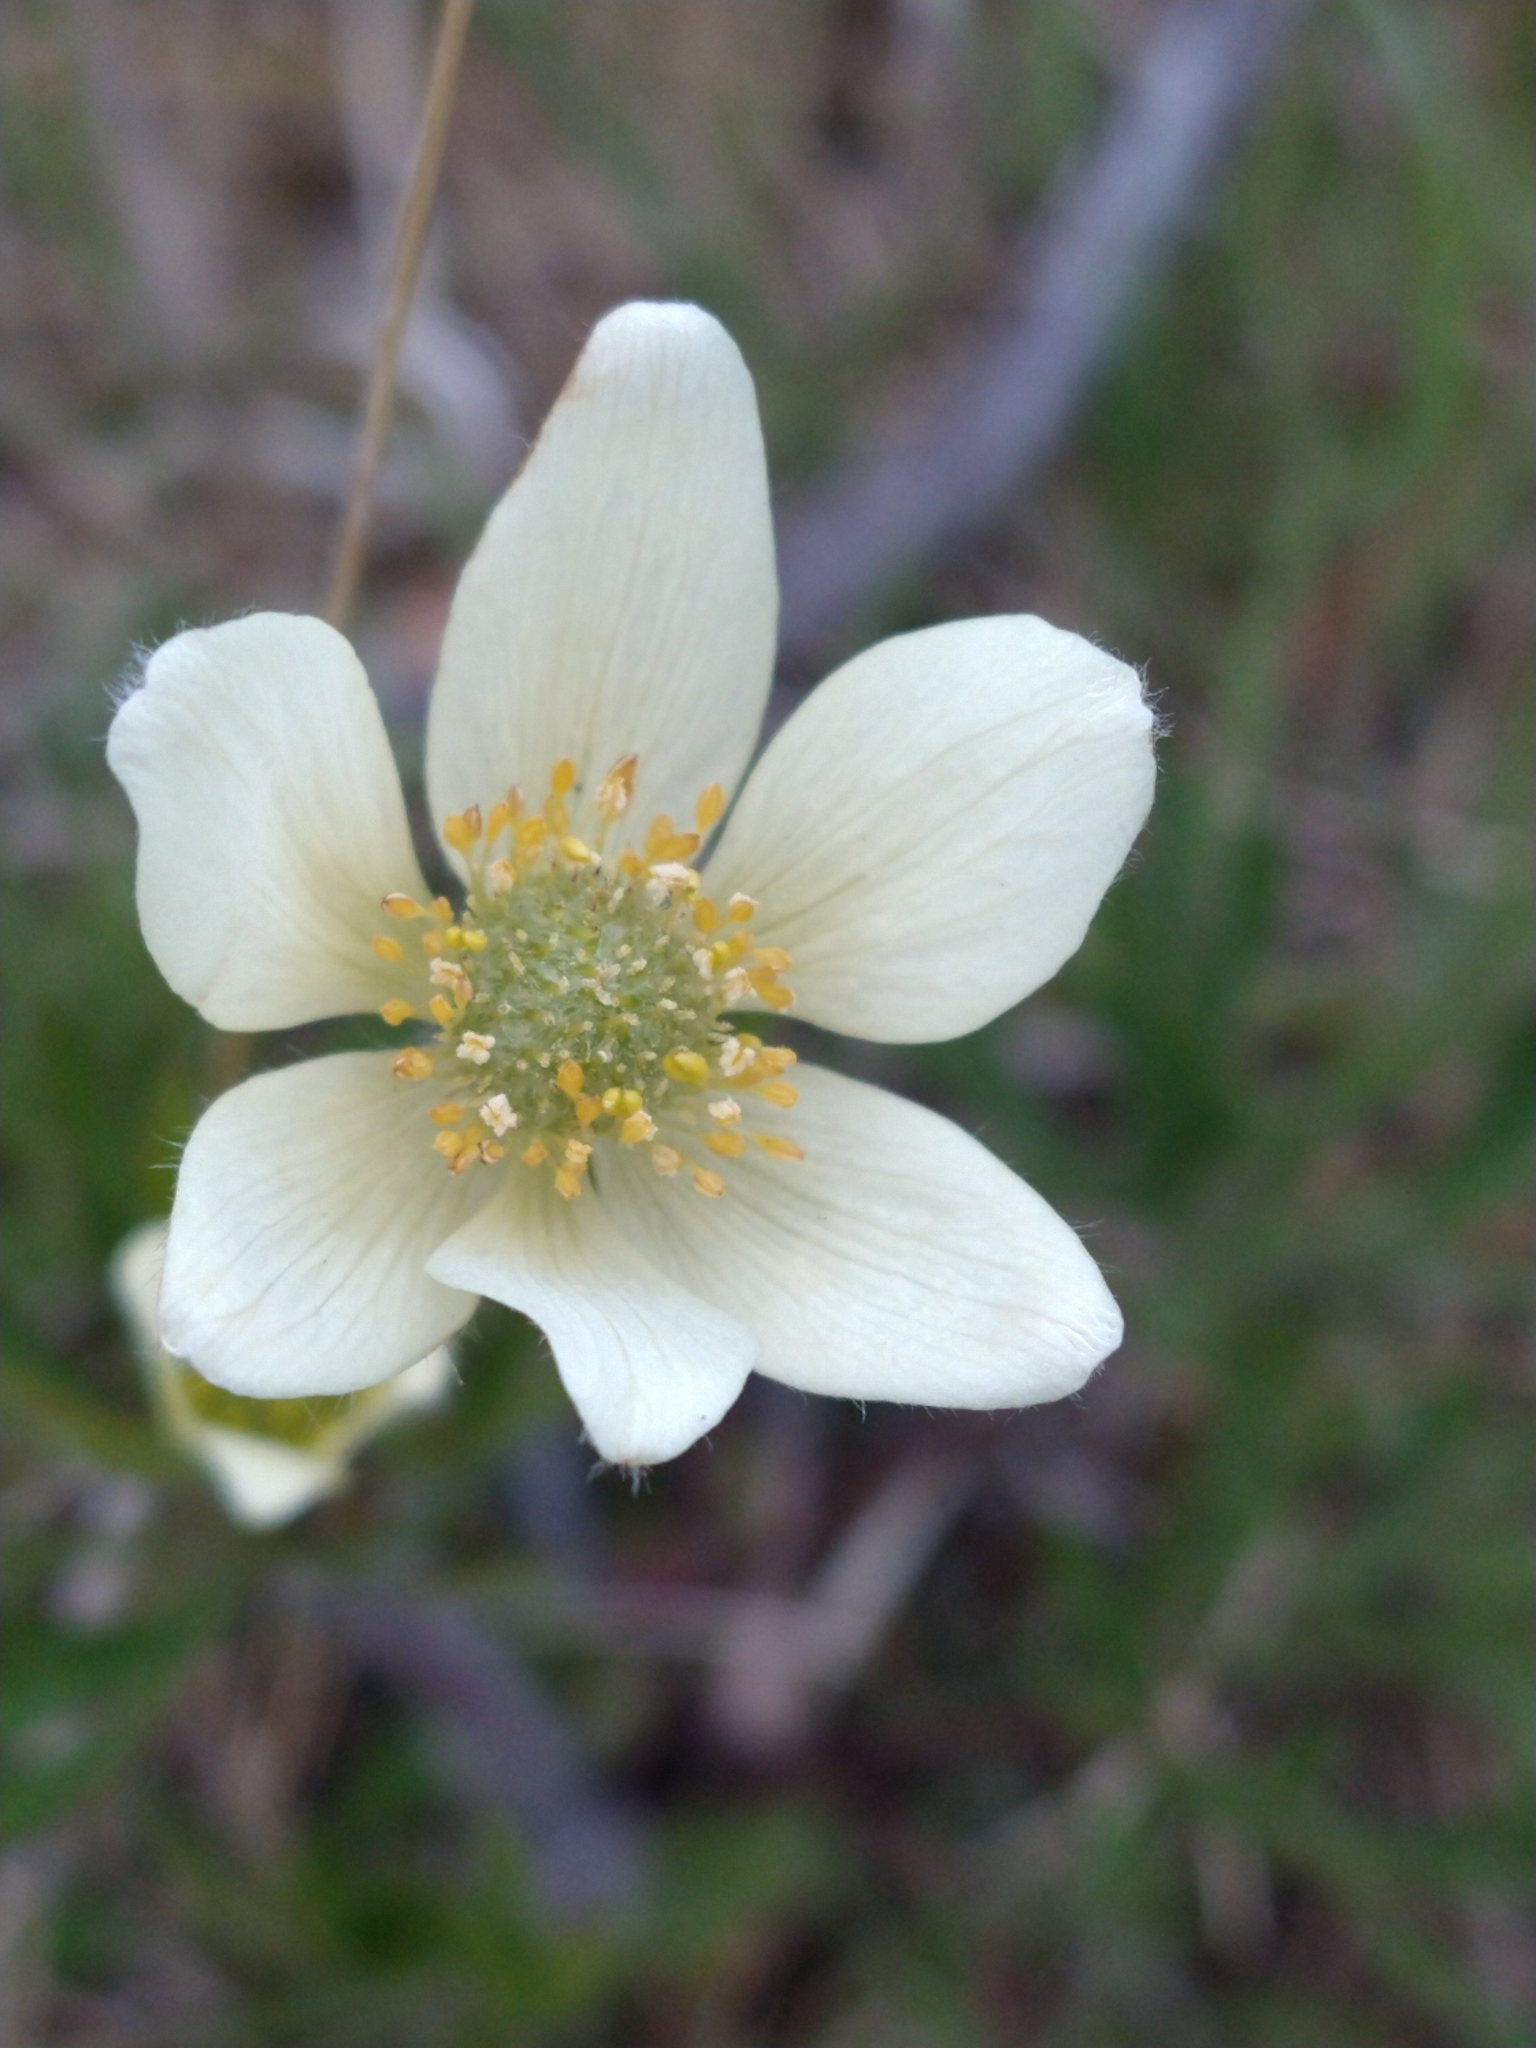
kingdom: Plantae
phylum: Tracheophyta
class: Magnoliopsida
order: Ranunculales
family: Ranunculaceae
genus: Anemone
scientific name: Anemone multifida
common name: Bird's-foot anemone
